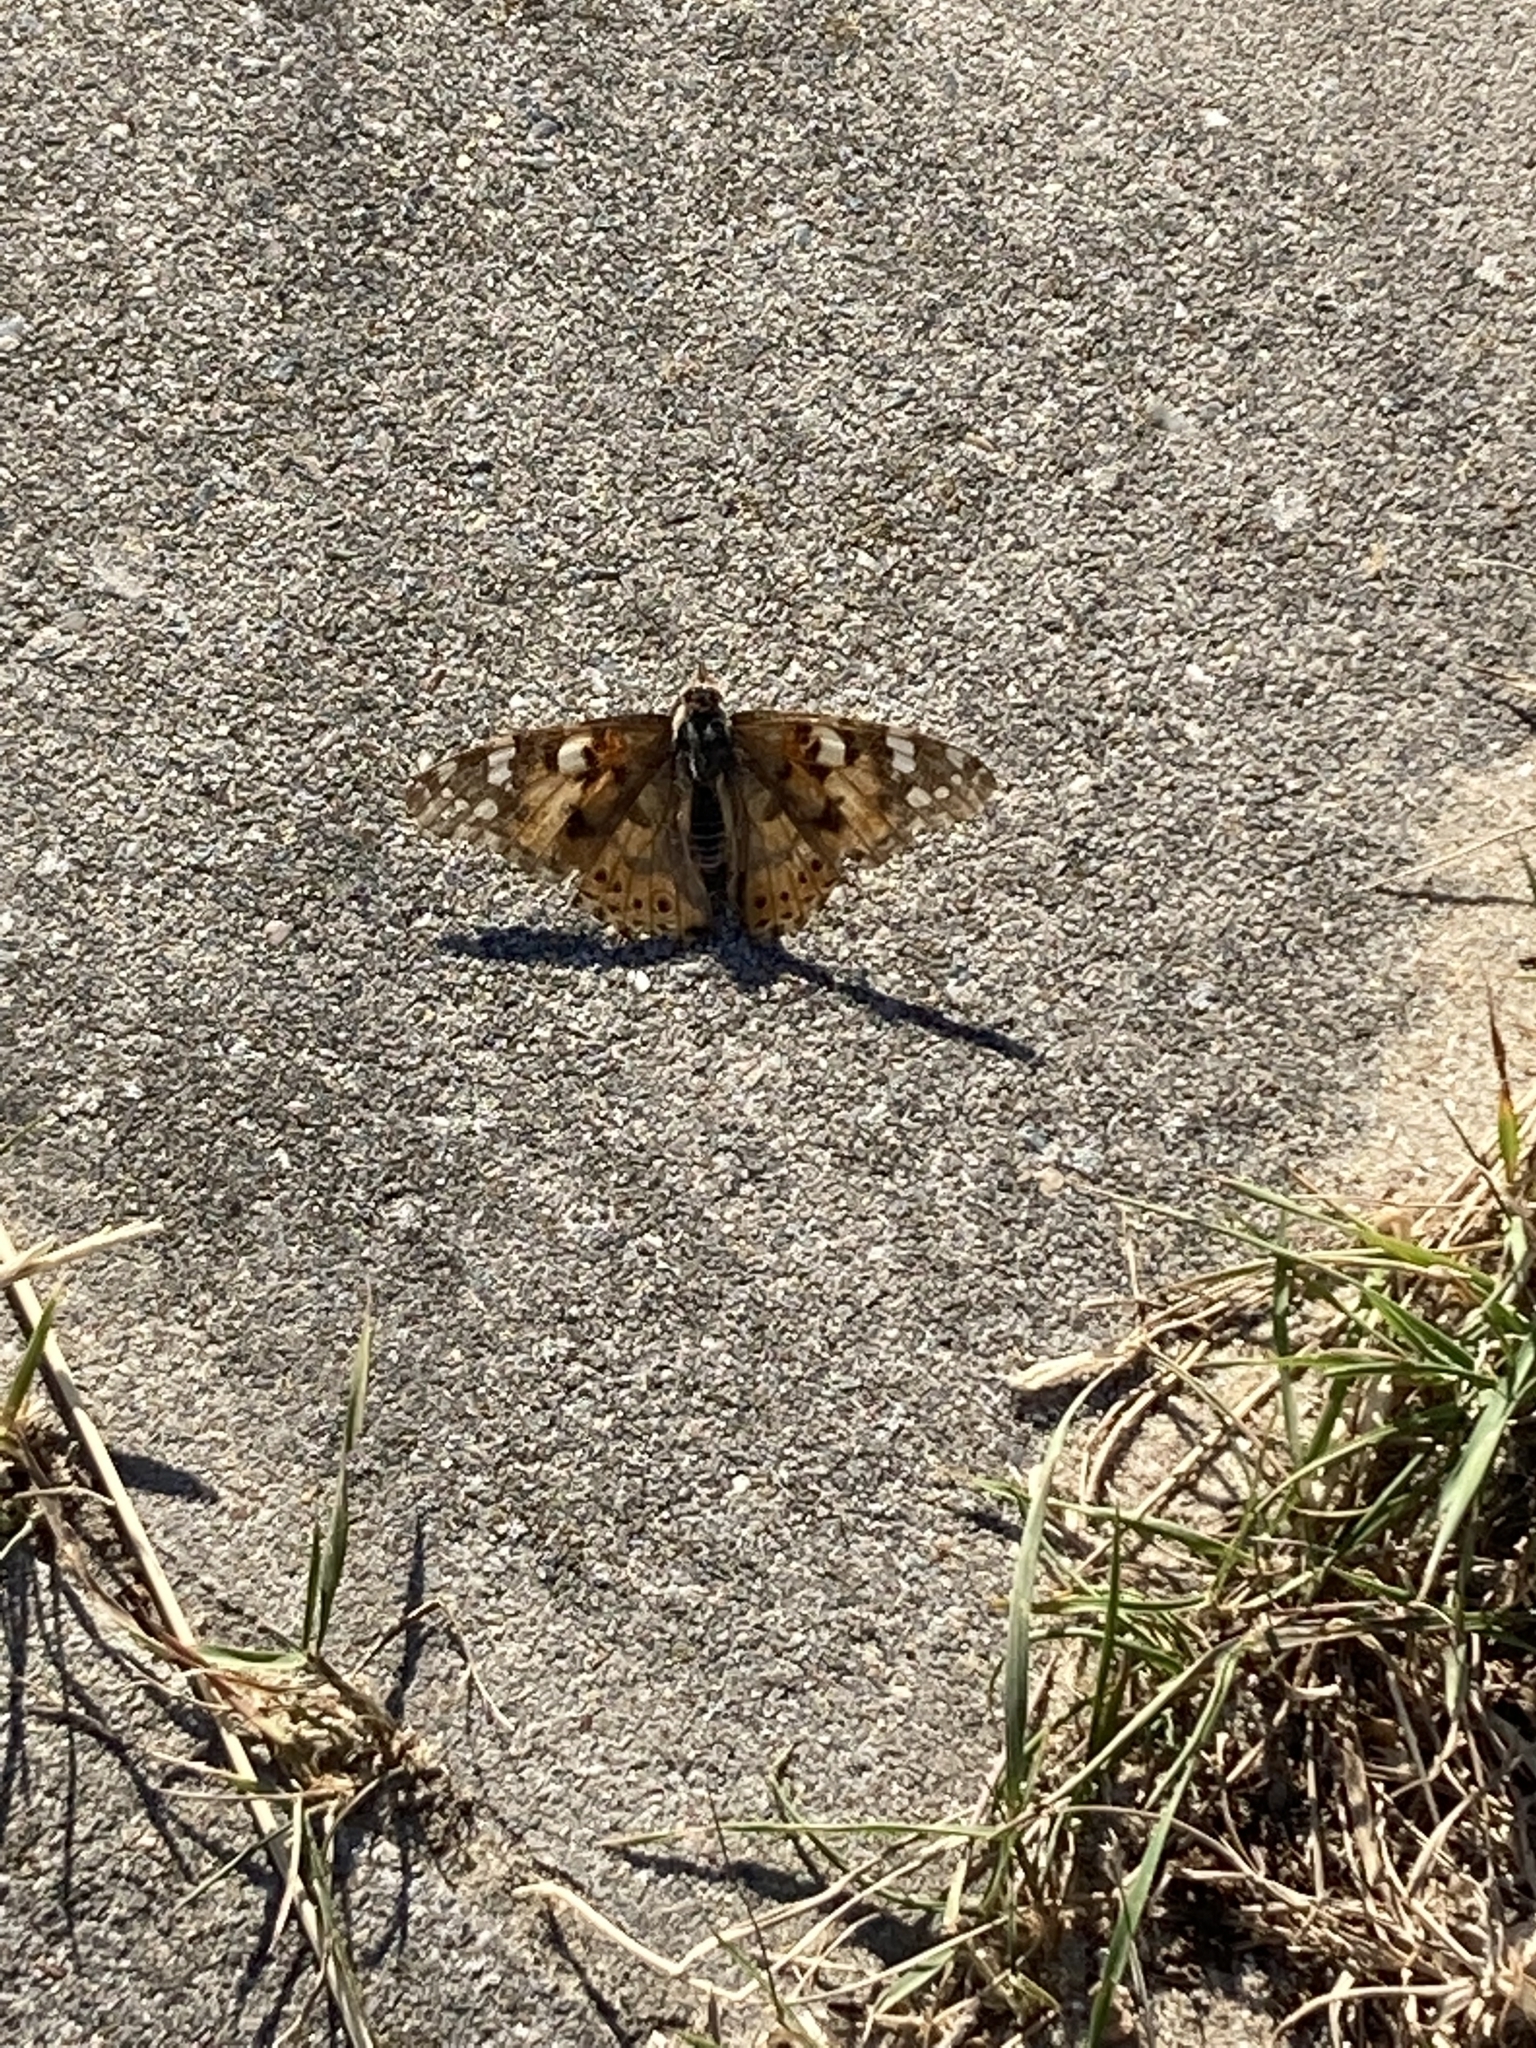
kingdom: Animalia
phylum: Arthropoda
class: Insecta
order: Lepidoptera
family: Nymphalidae
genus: Vanessa
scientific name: Vanessa cardui
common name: Painted lady
